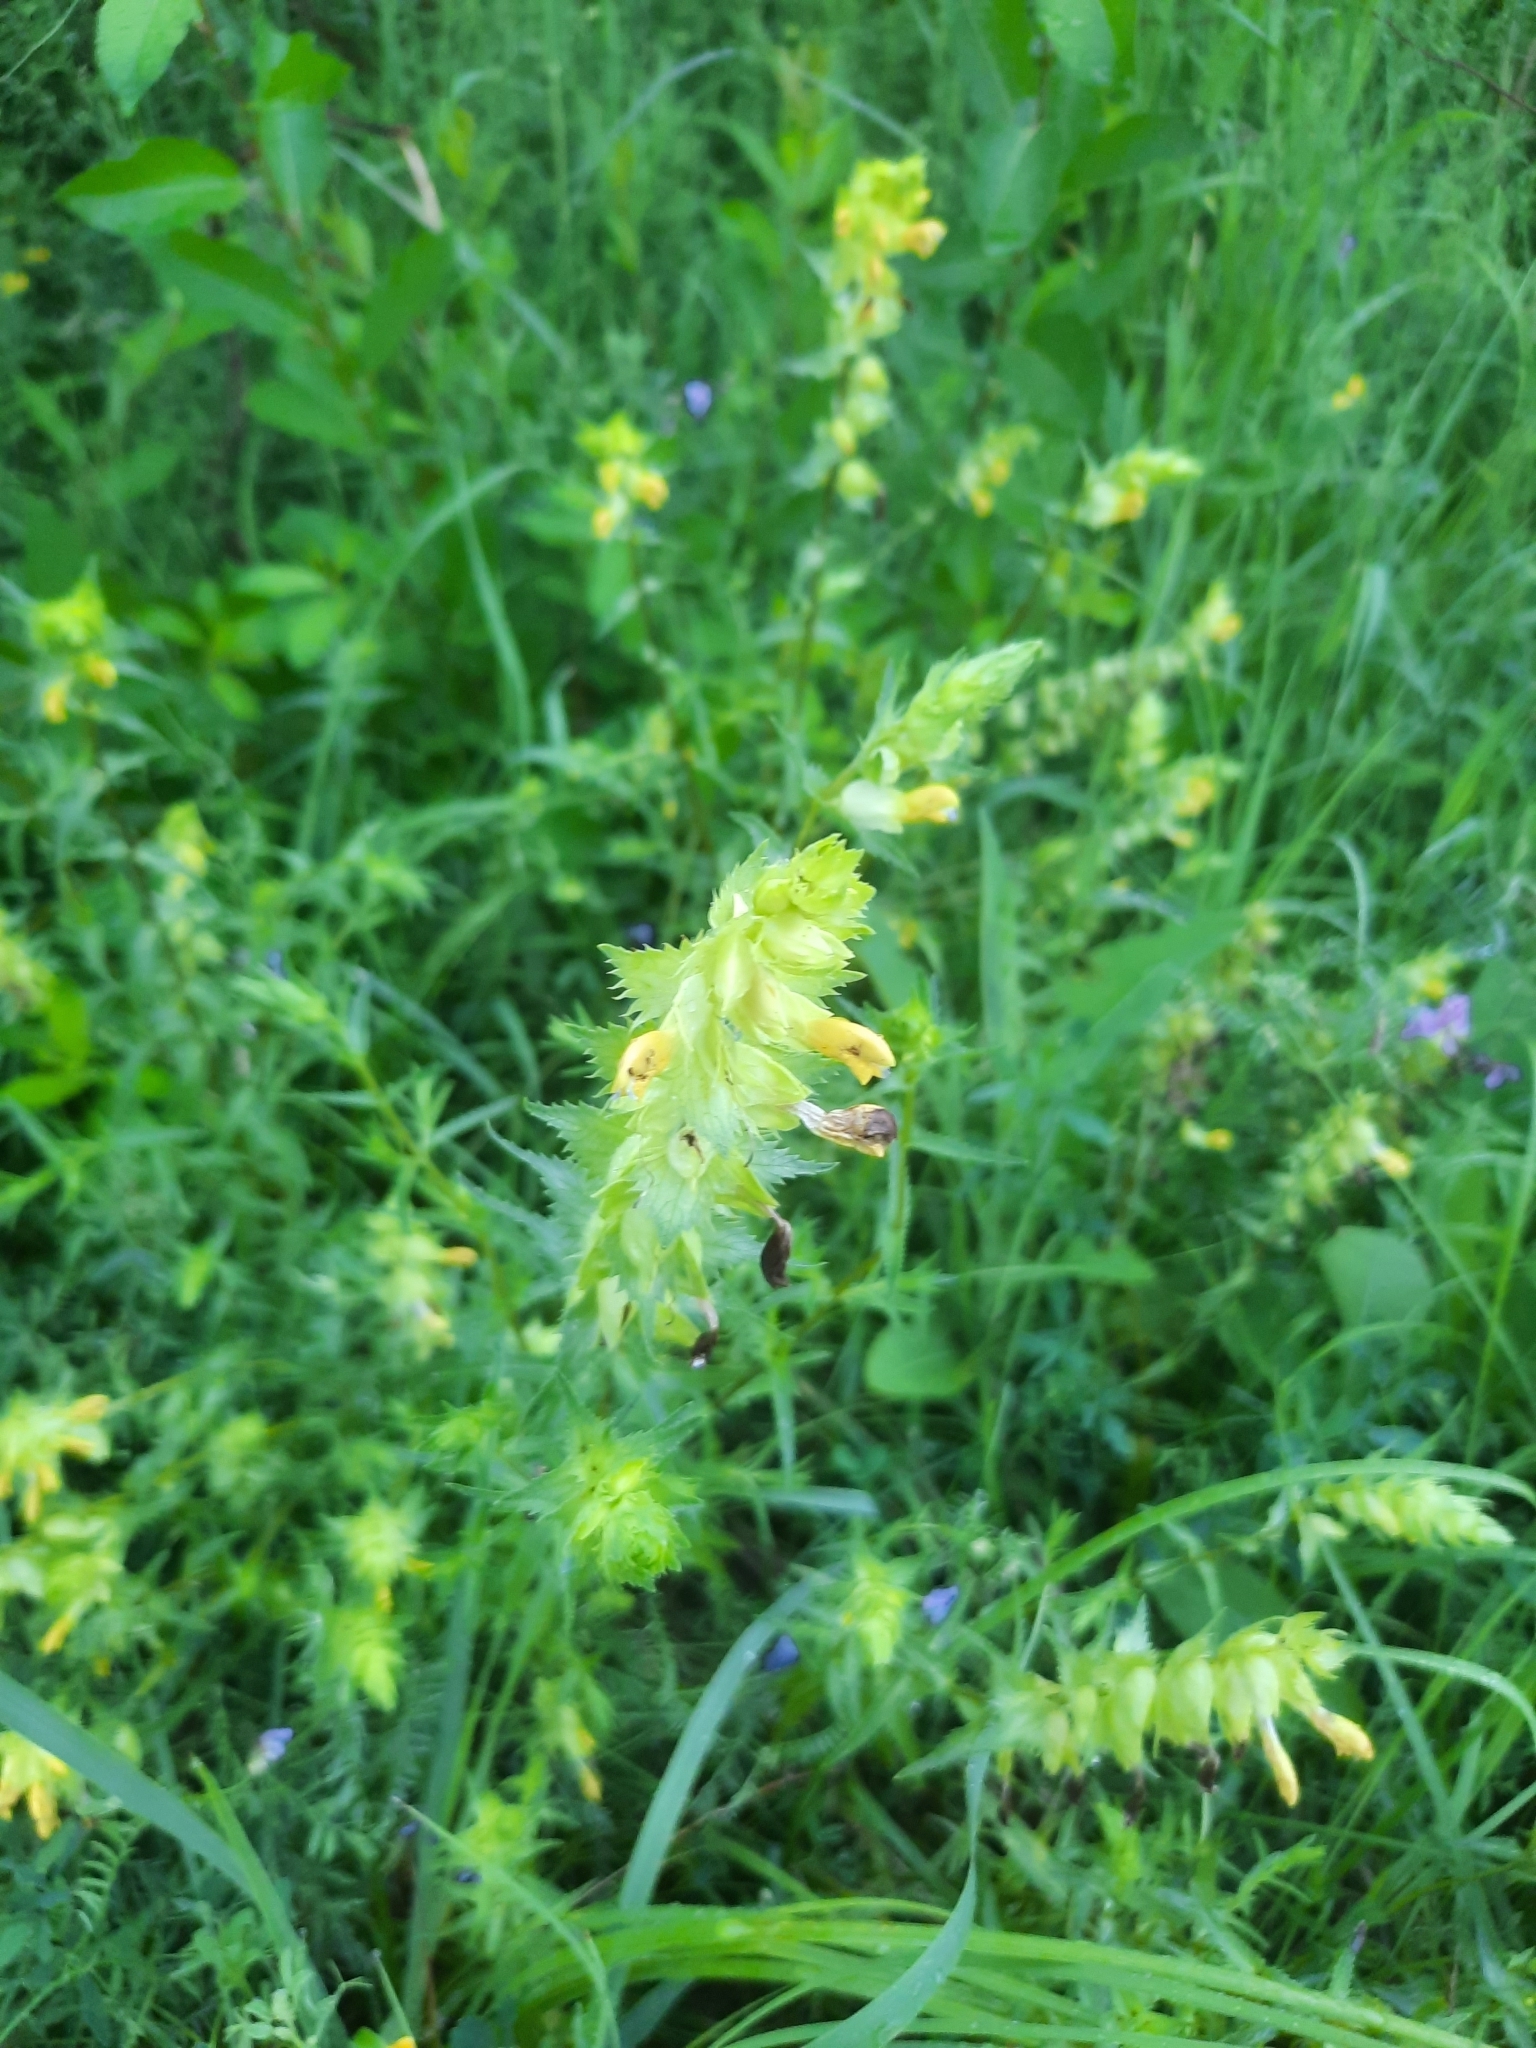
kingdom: Plantae
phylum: Tracheophyta
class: Magnoliopsida
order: Lamiales
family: Orobanchaceae
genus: Rhinanthus
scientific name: Rhinanthus serotinus
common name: Late-flowering yellow rattle
